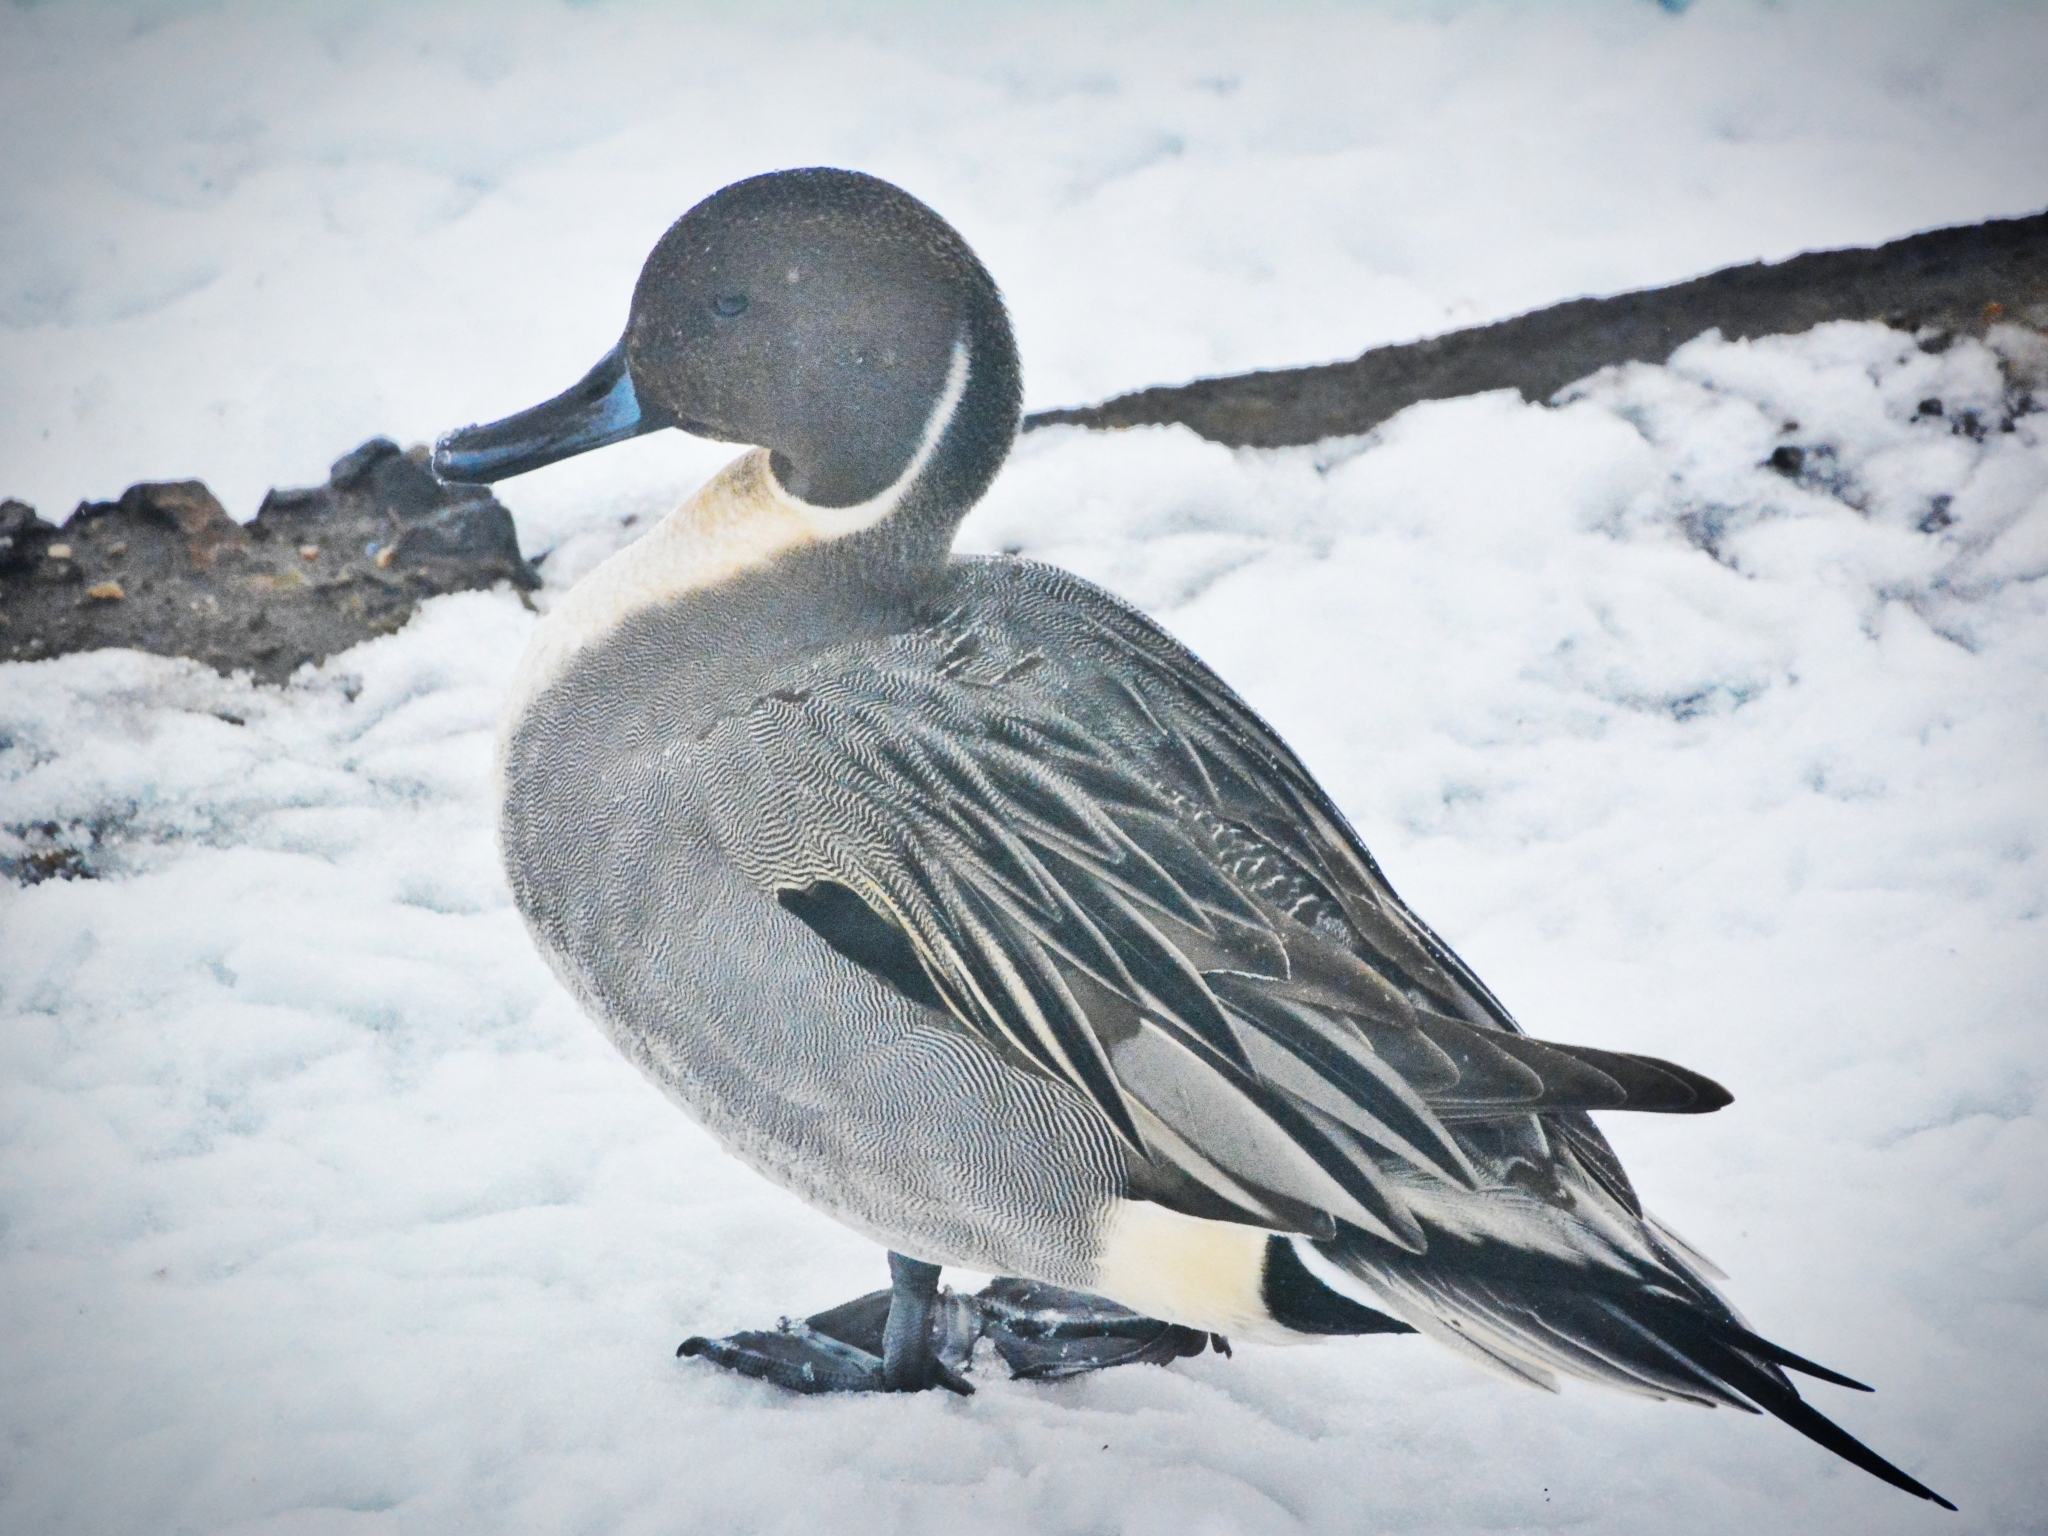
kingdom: Animalia
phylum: Chordata
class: Aves
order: Anseriformes
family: Anatidae
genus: Anas
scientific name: Anas acuta
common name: Northern pintail
